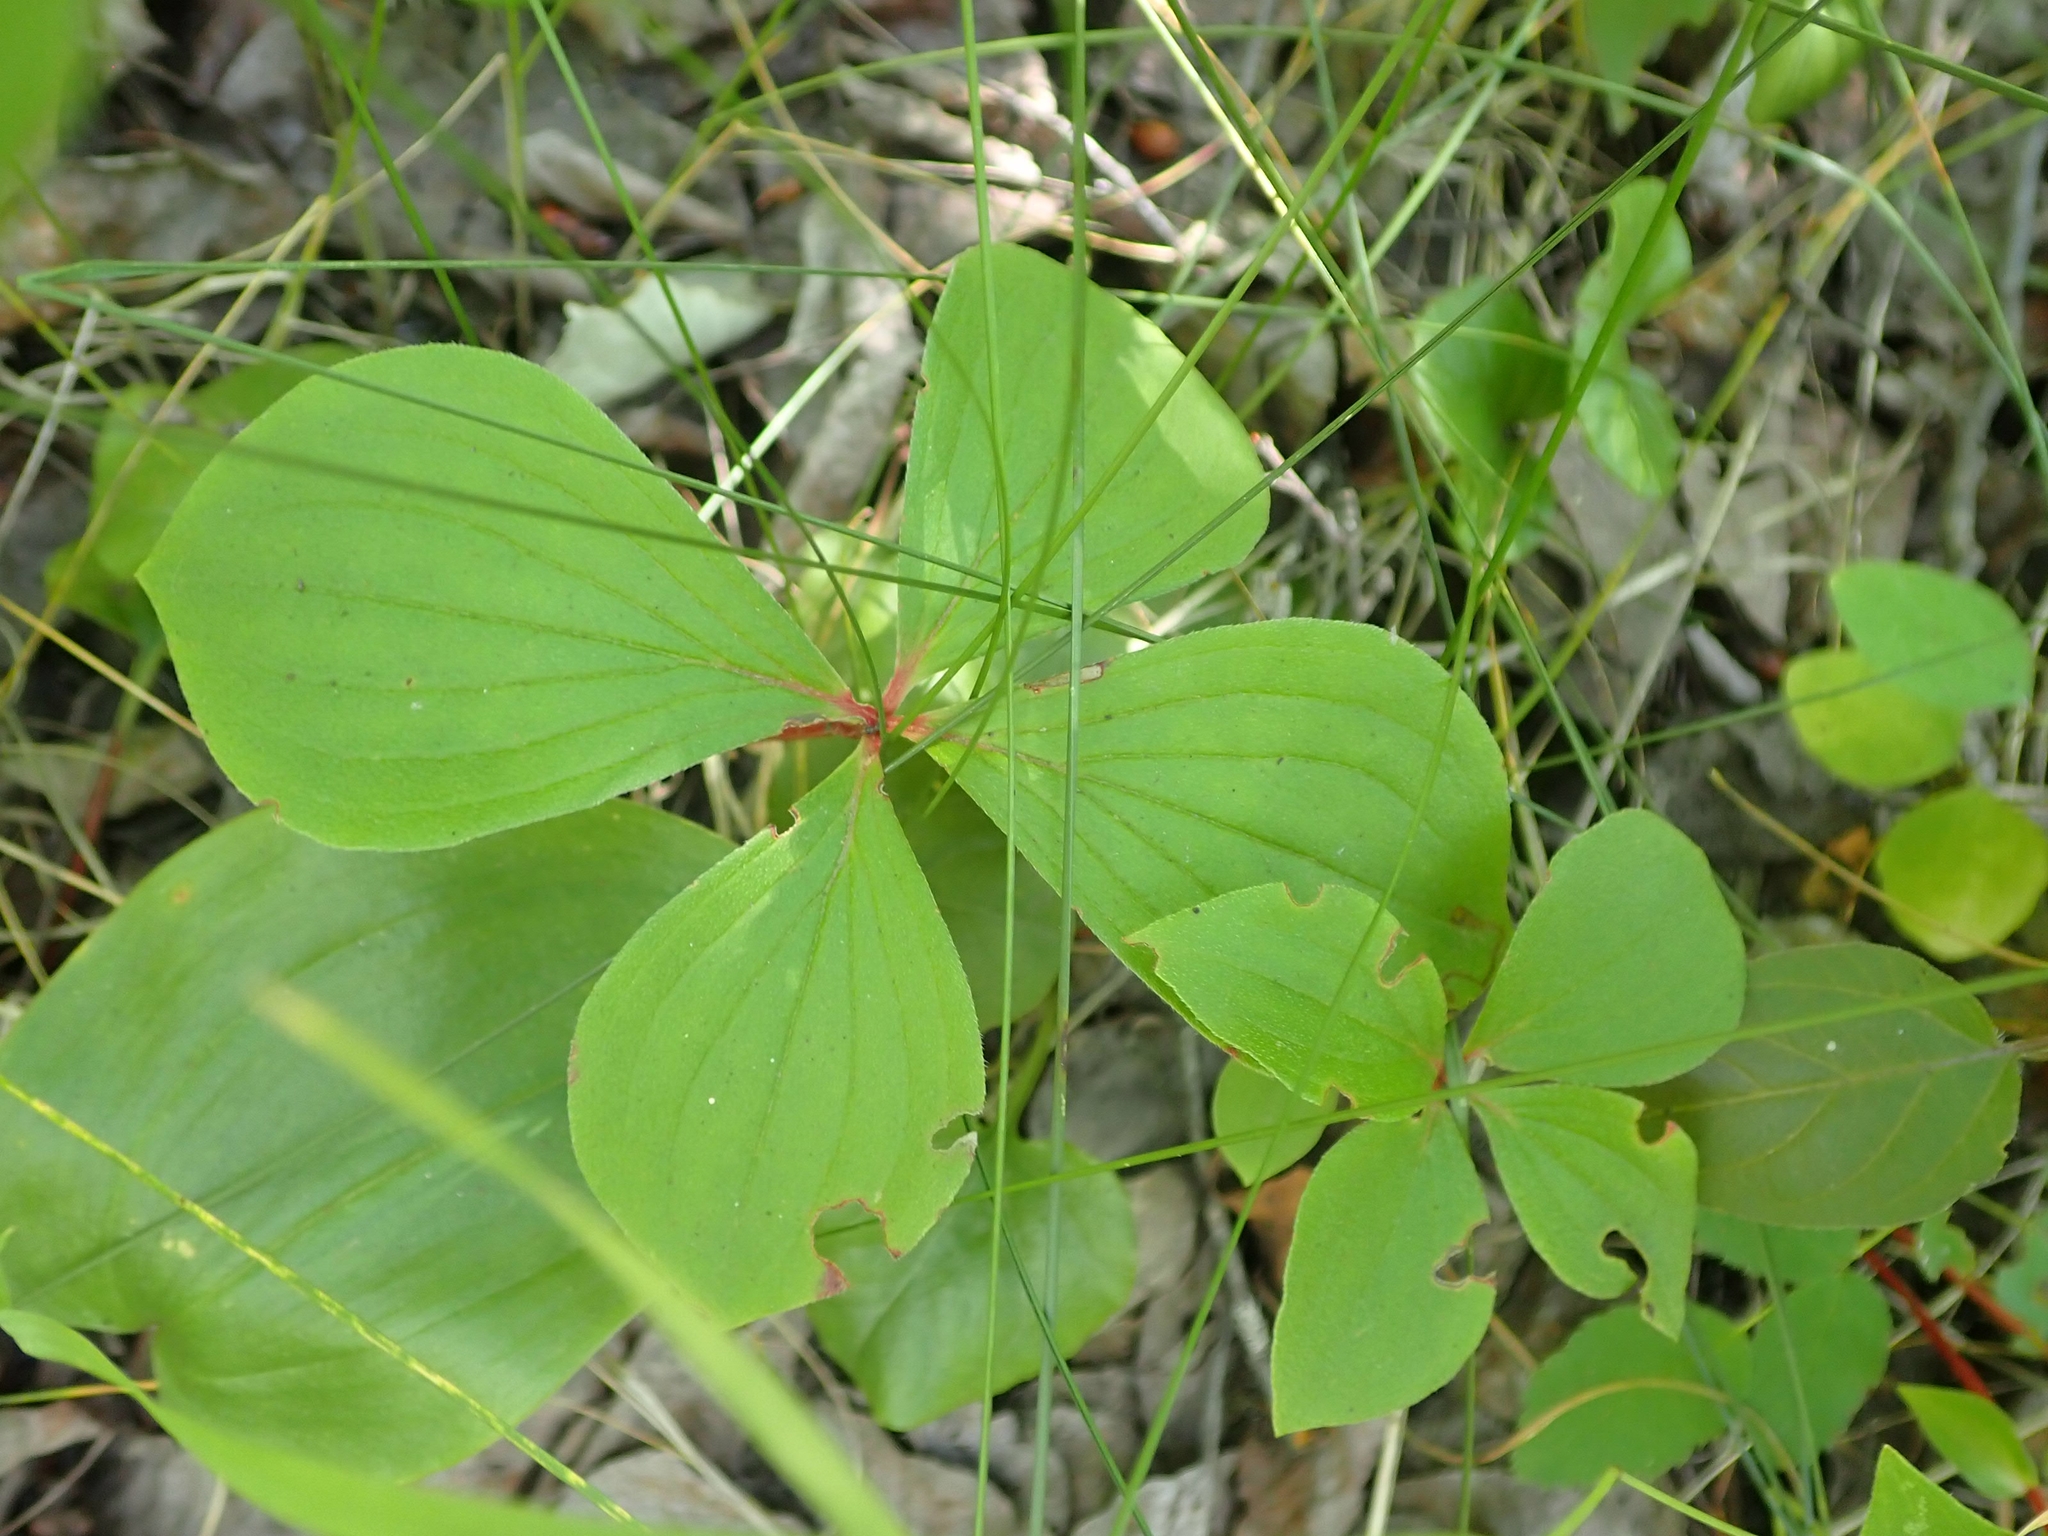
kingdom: Plantae
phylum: Tracheophyta
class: Magnoliopsida
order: Cornales
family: Cornaceae
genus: Cornus
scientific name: Cornus canadensis
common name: Creeping dogwood
